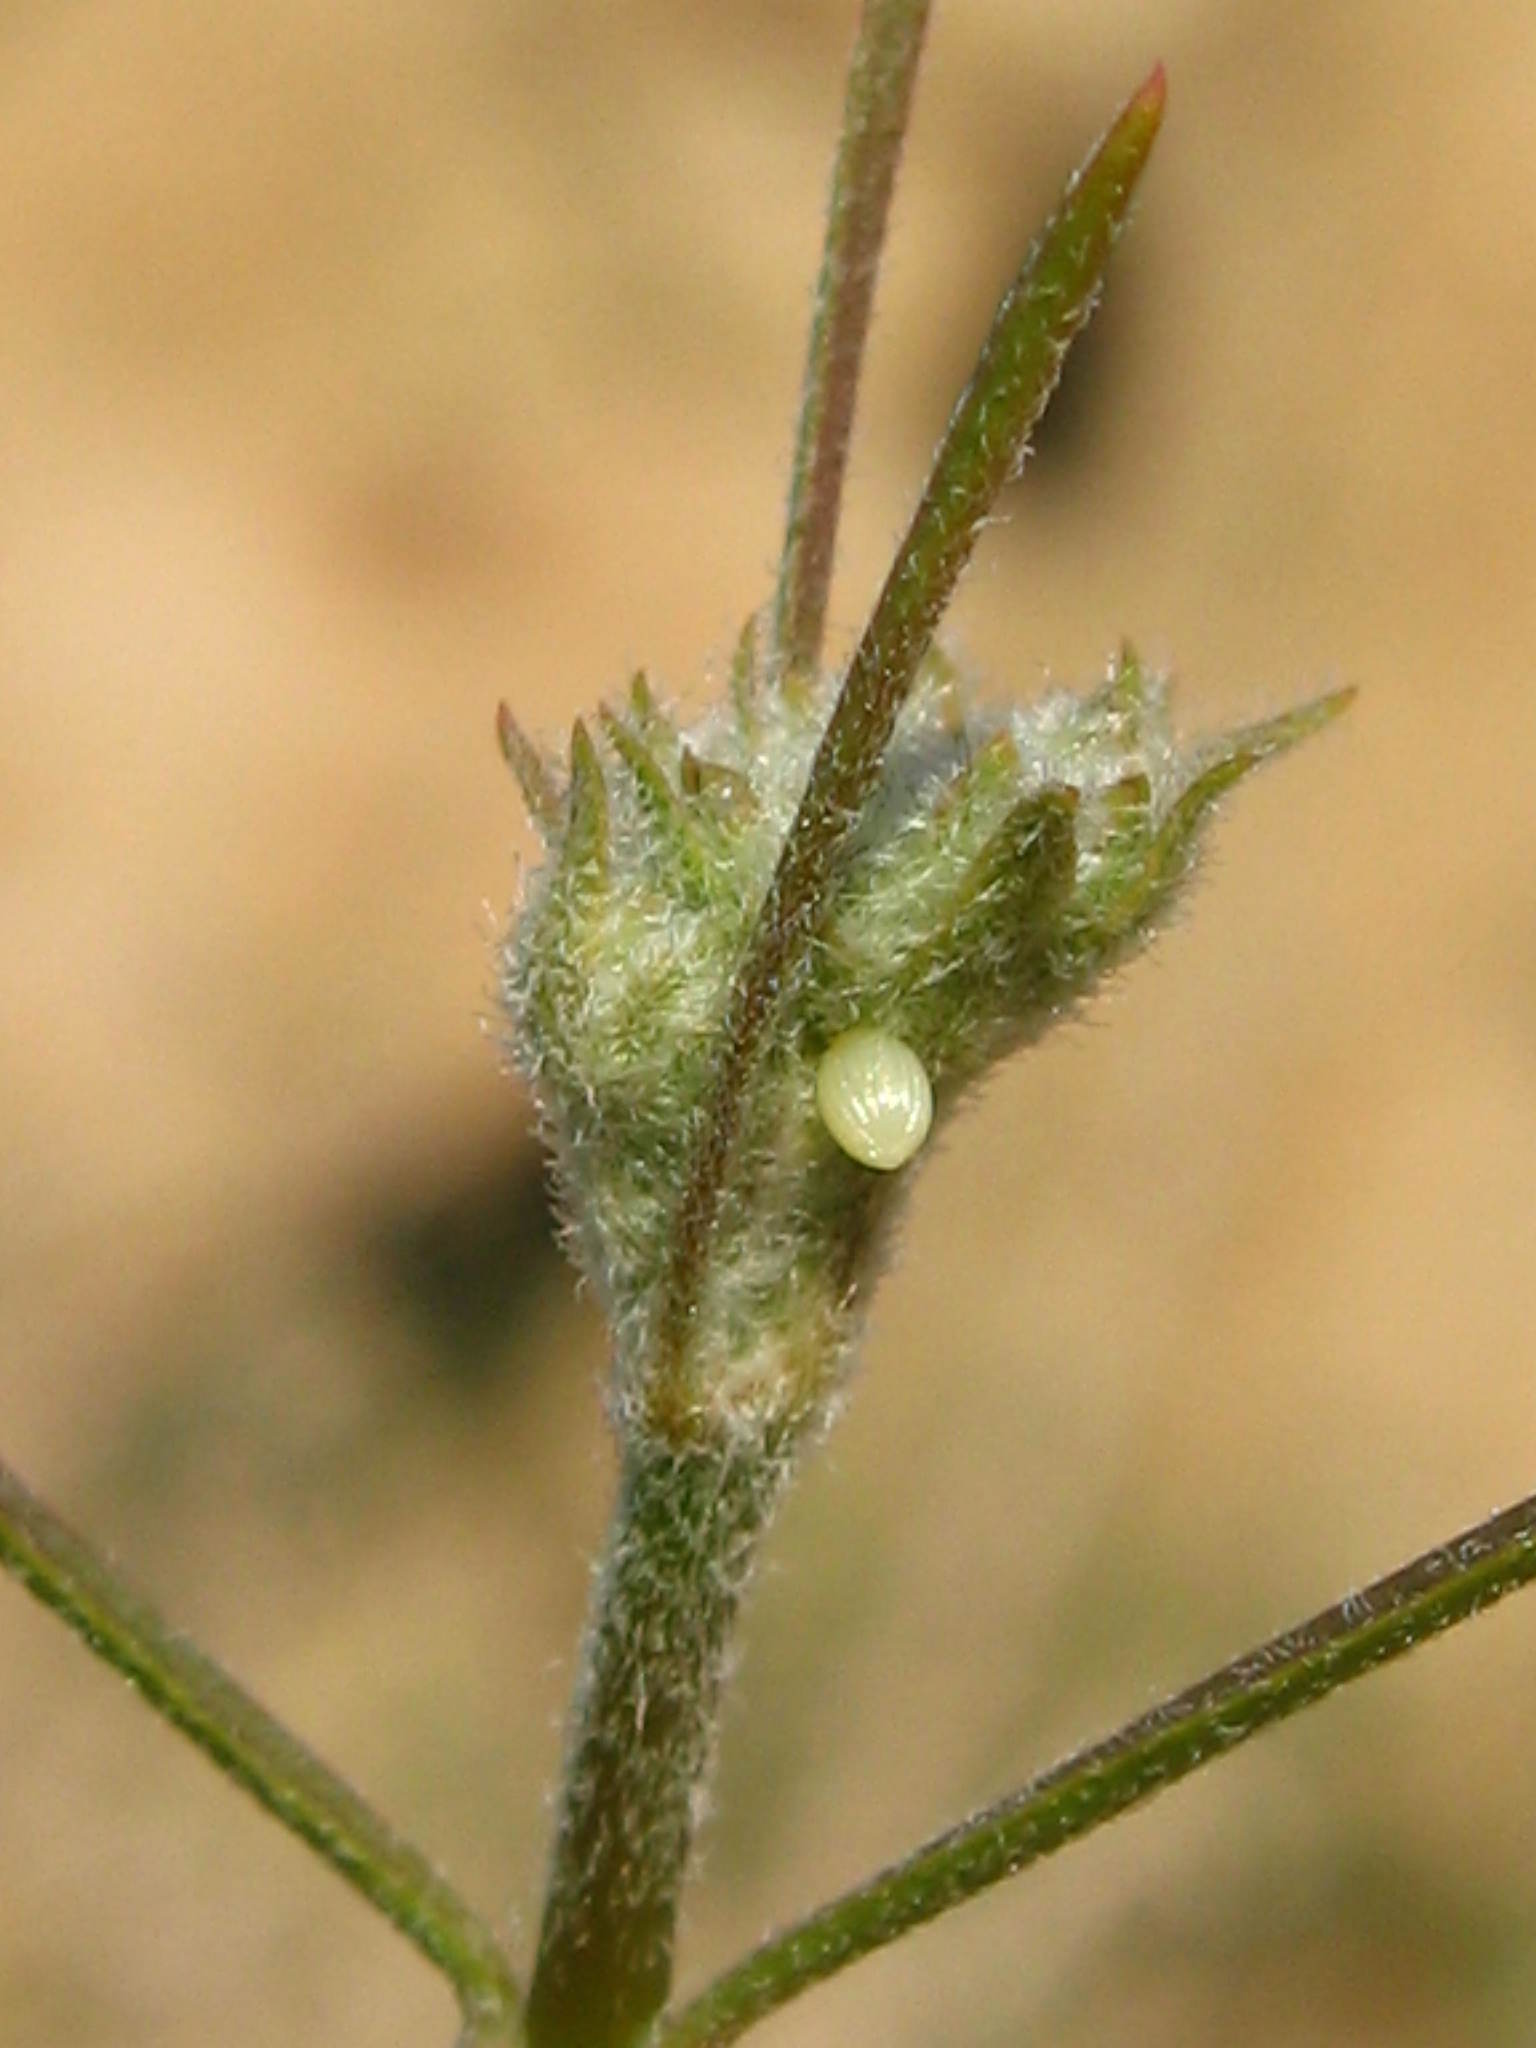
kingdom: Animalia
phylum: Arthropoda
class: Insecta
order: Lepidoptera
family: Nymphalidae
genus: Danaus
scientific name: Danaus gilippus
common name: Queen
